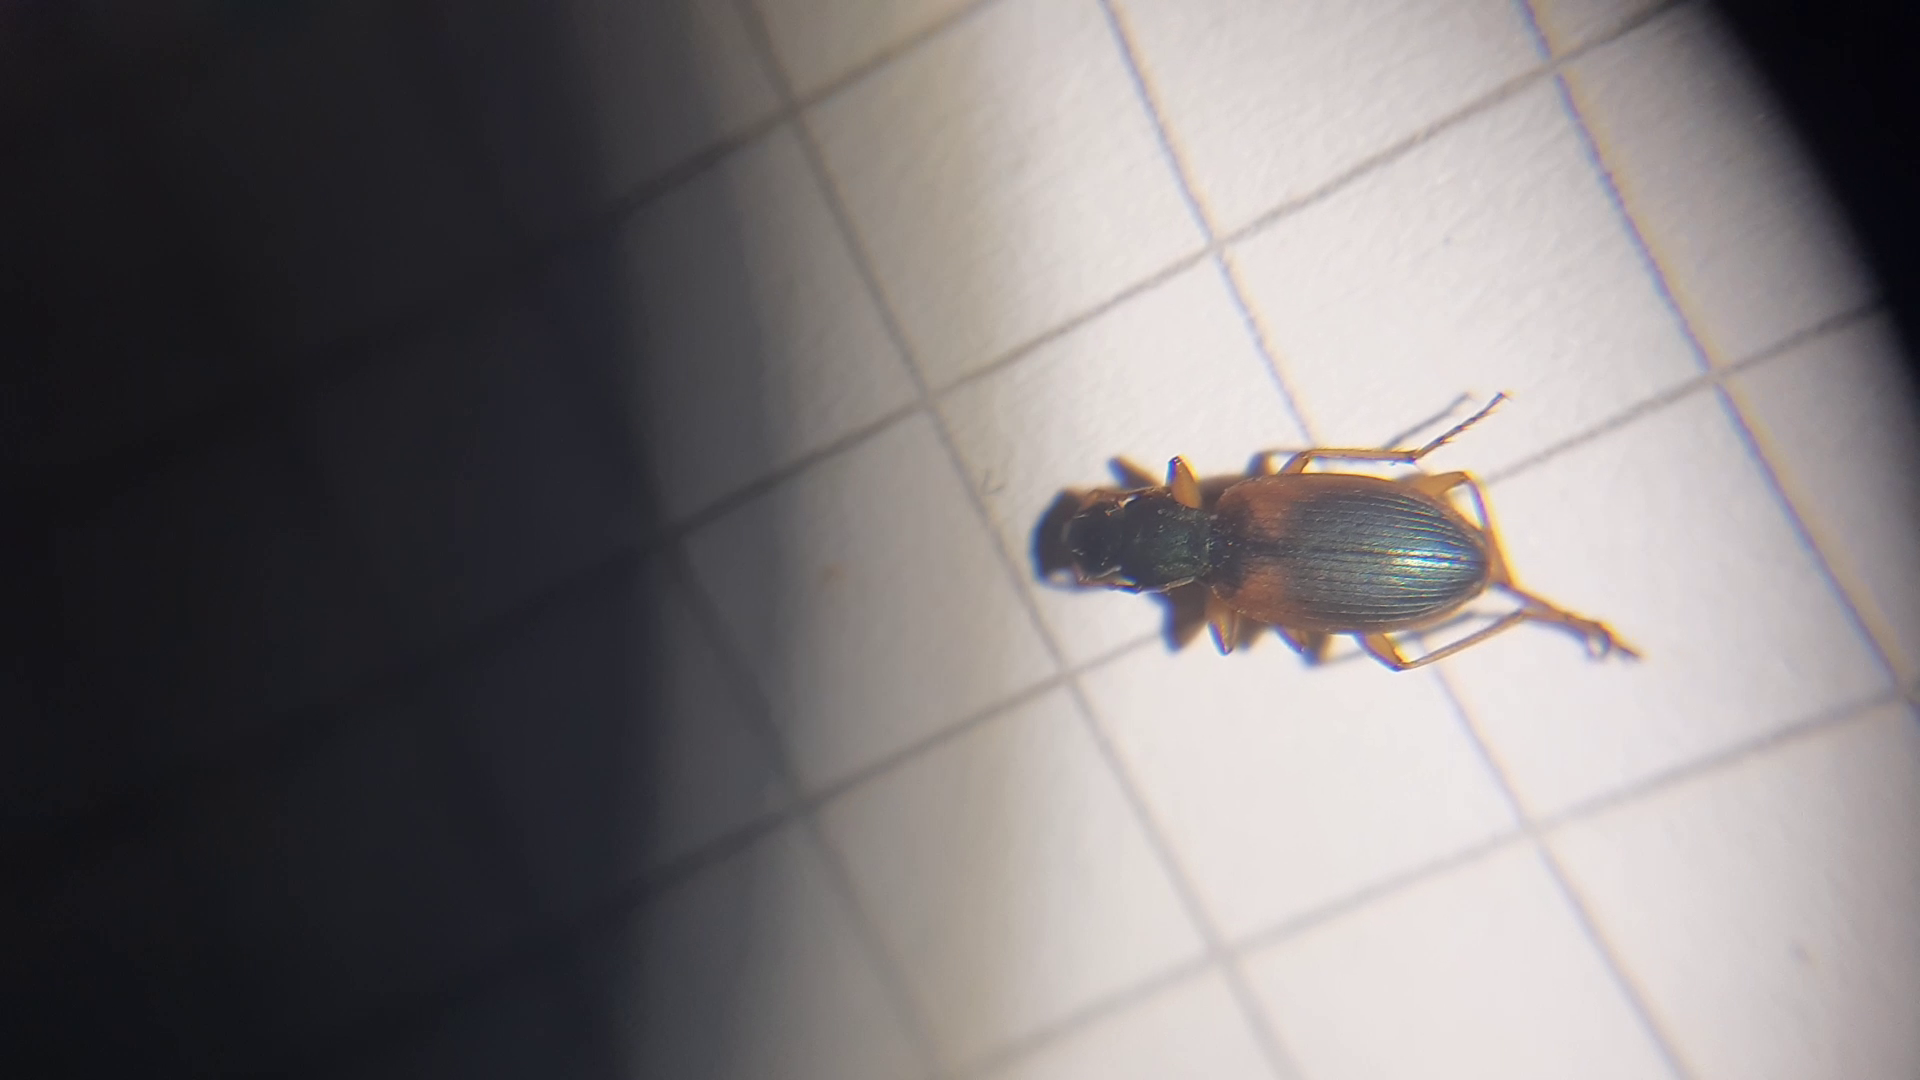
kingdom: Animalia
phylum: Arthropoda
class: Insecta
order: Coleoptera
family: Carabidae
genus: Anchomenus
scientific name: Anchomenus dorsalis
